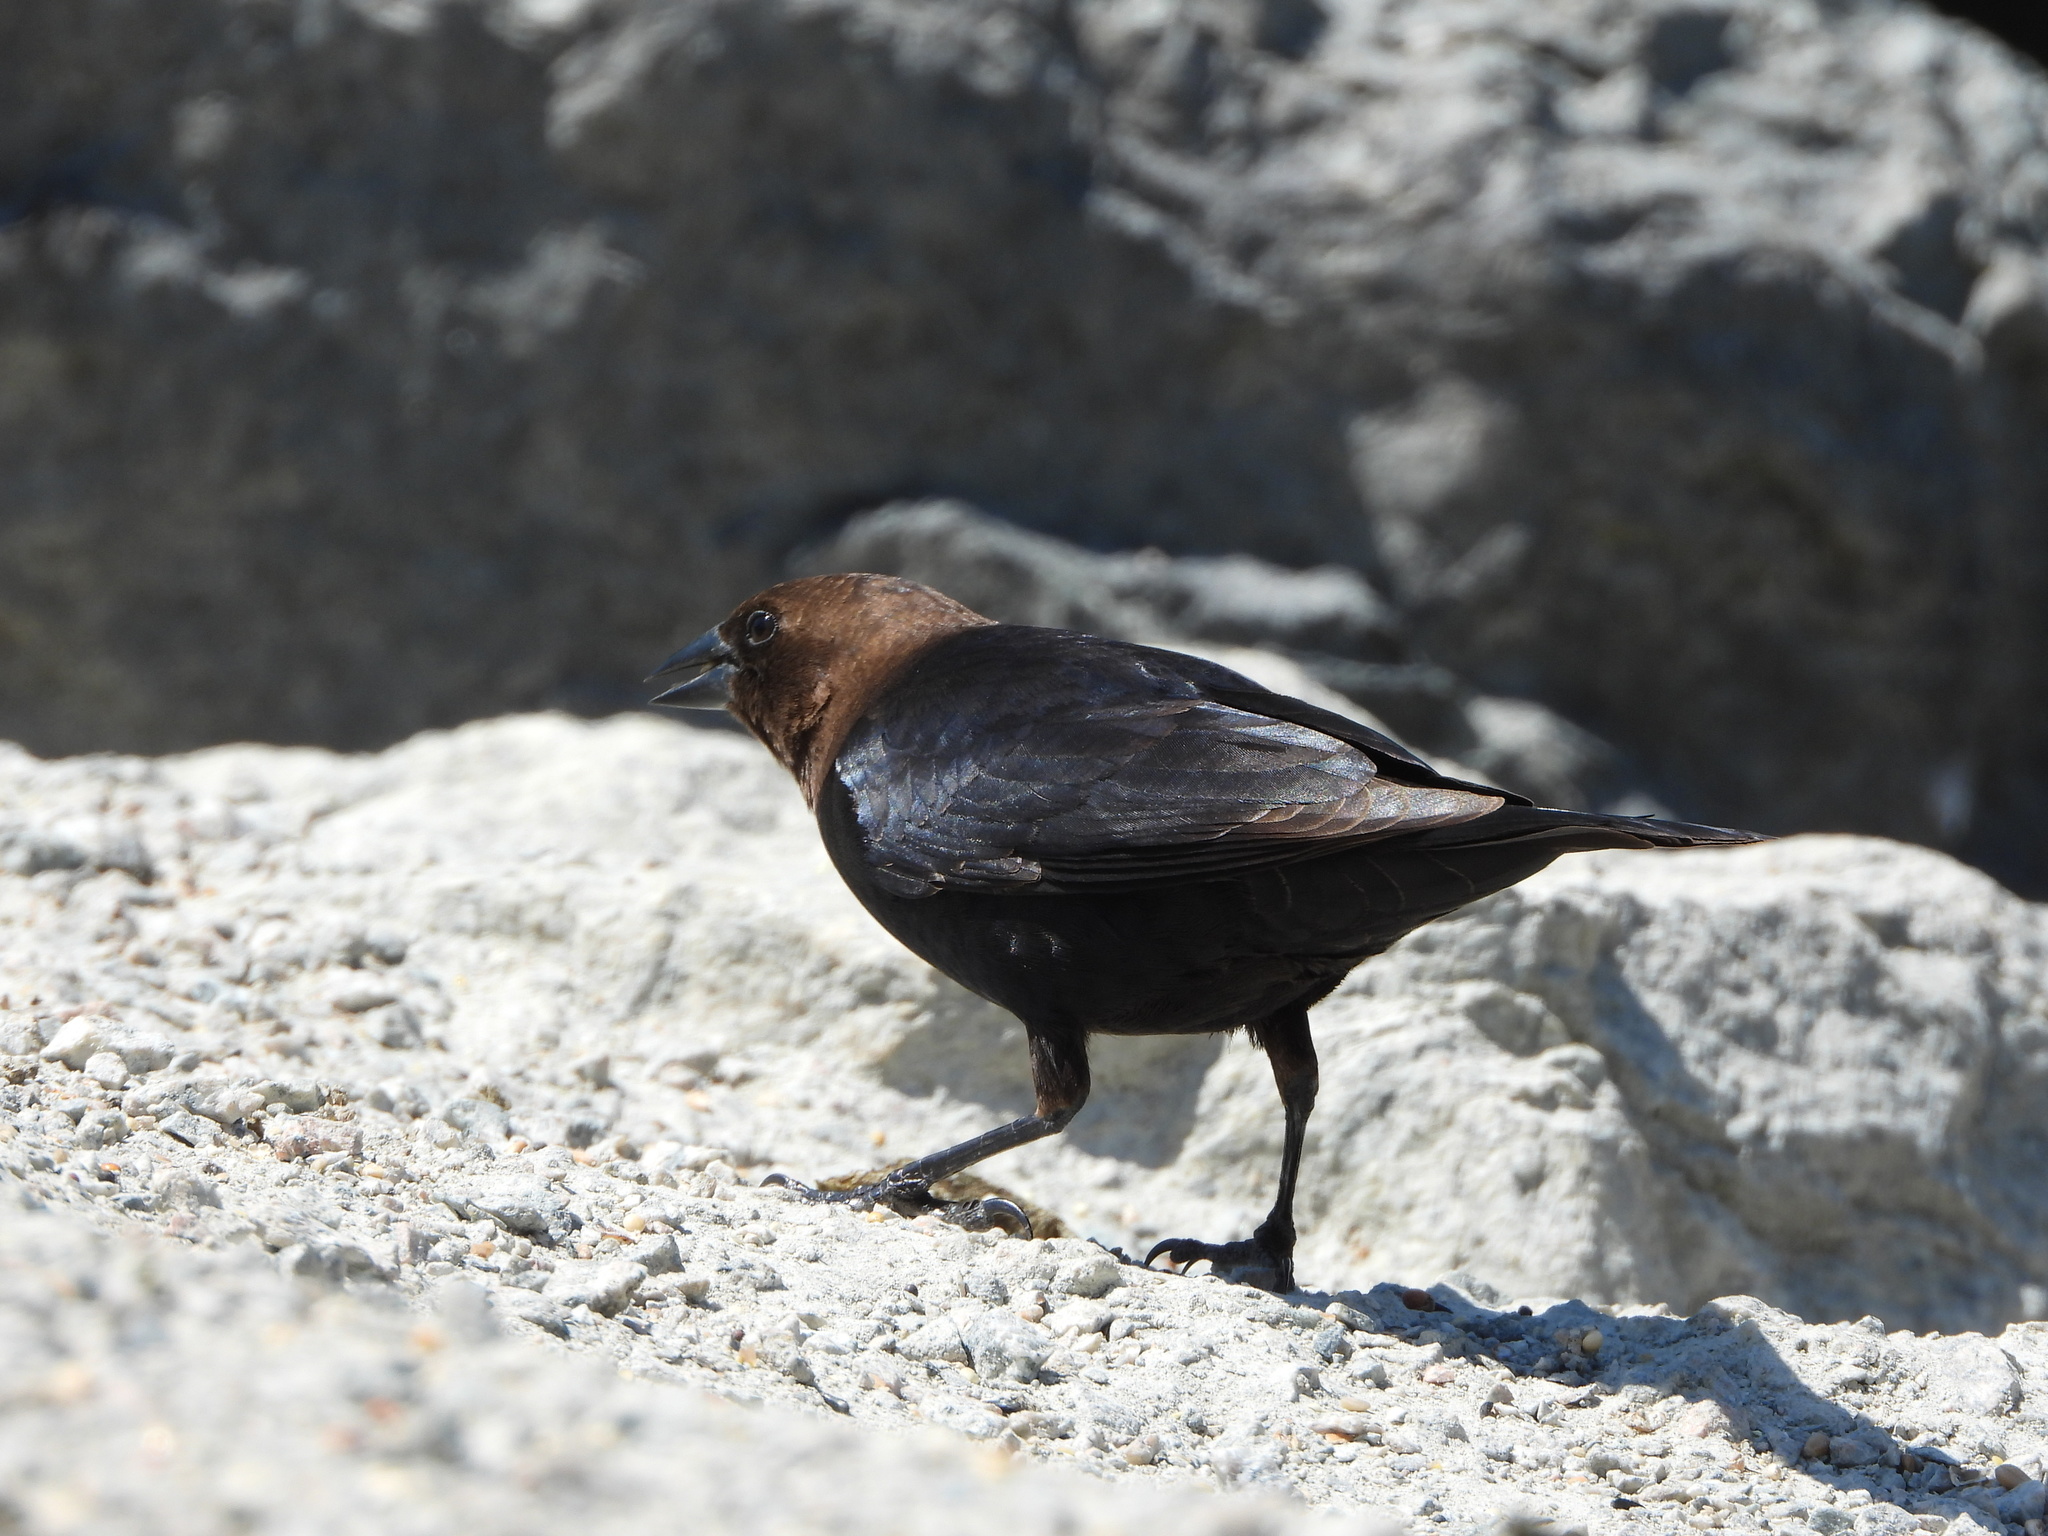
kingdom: Animalia
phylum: Chordata
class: Aves
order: Passeriformes
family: Icteridae
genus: Molothrus
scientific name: Molothrus ater
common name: Brown-headed cowbird
